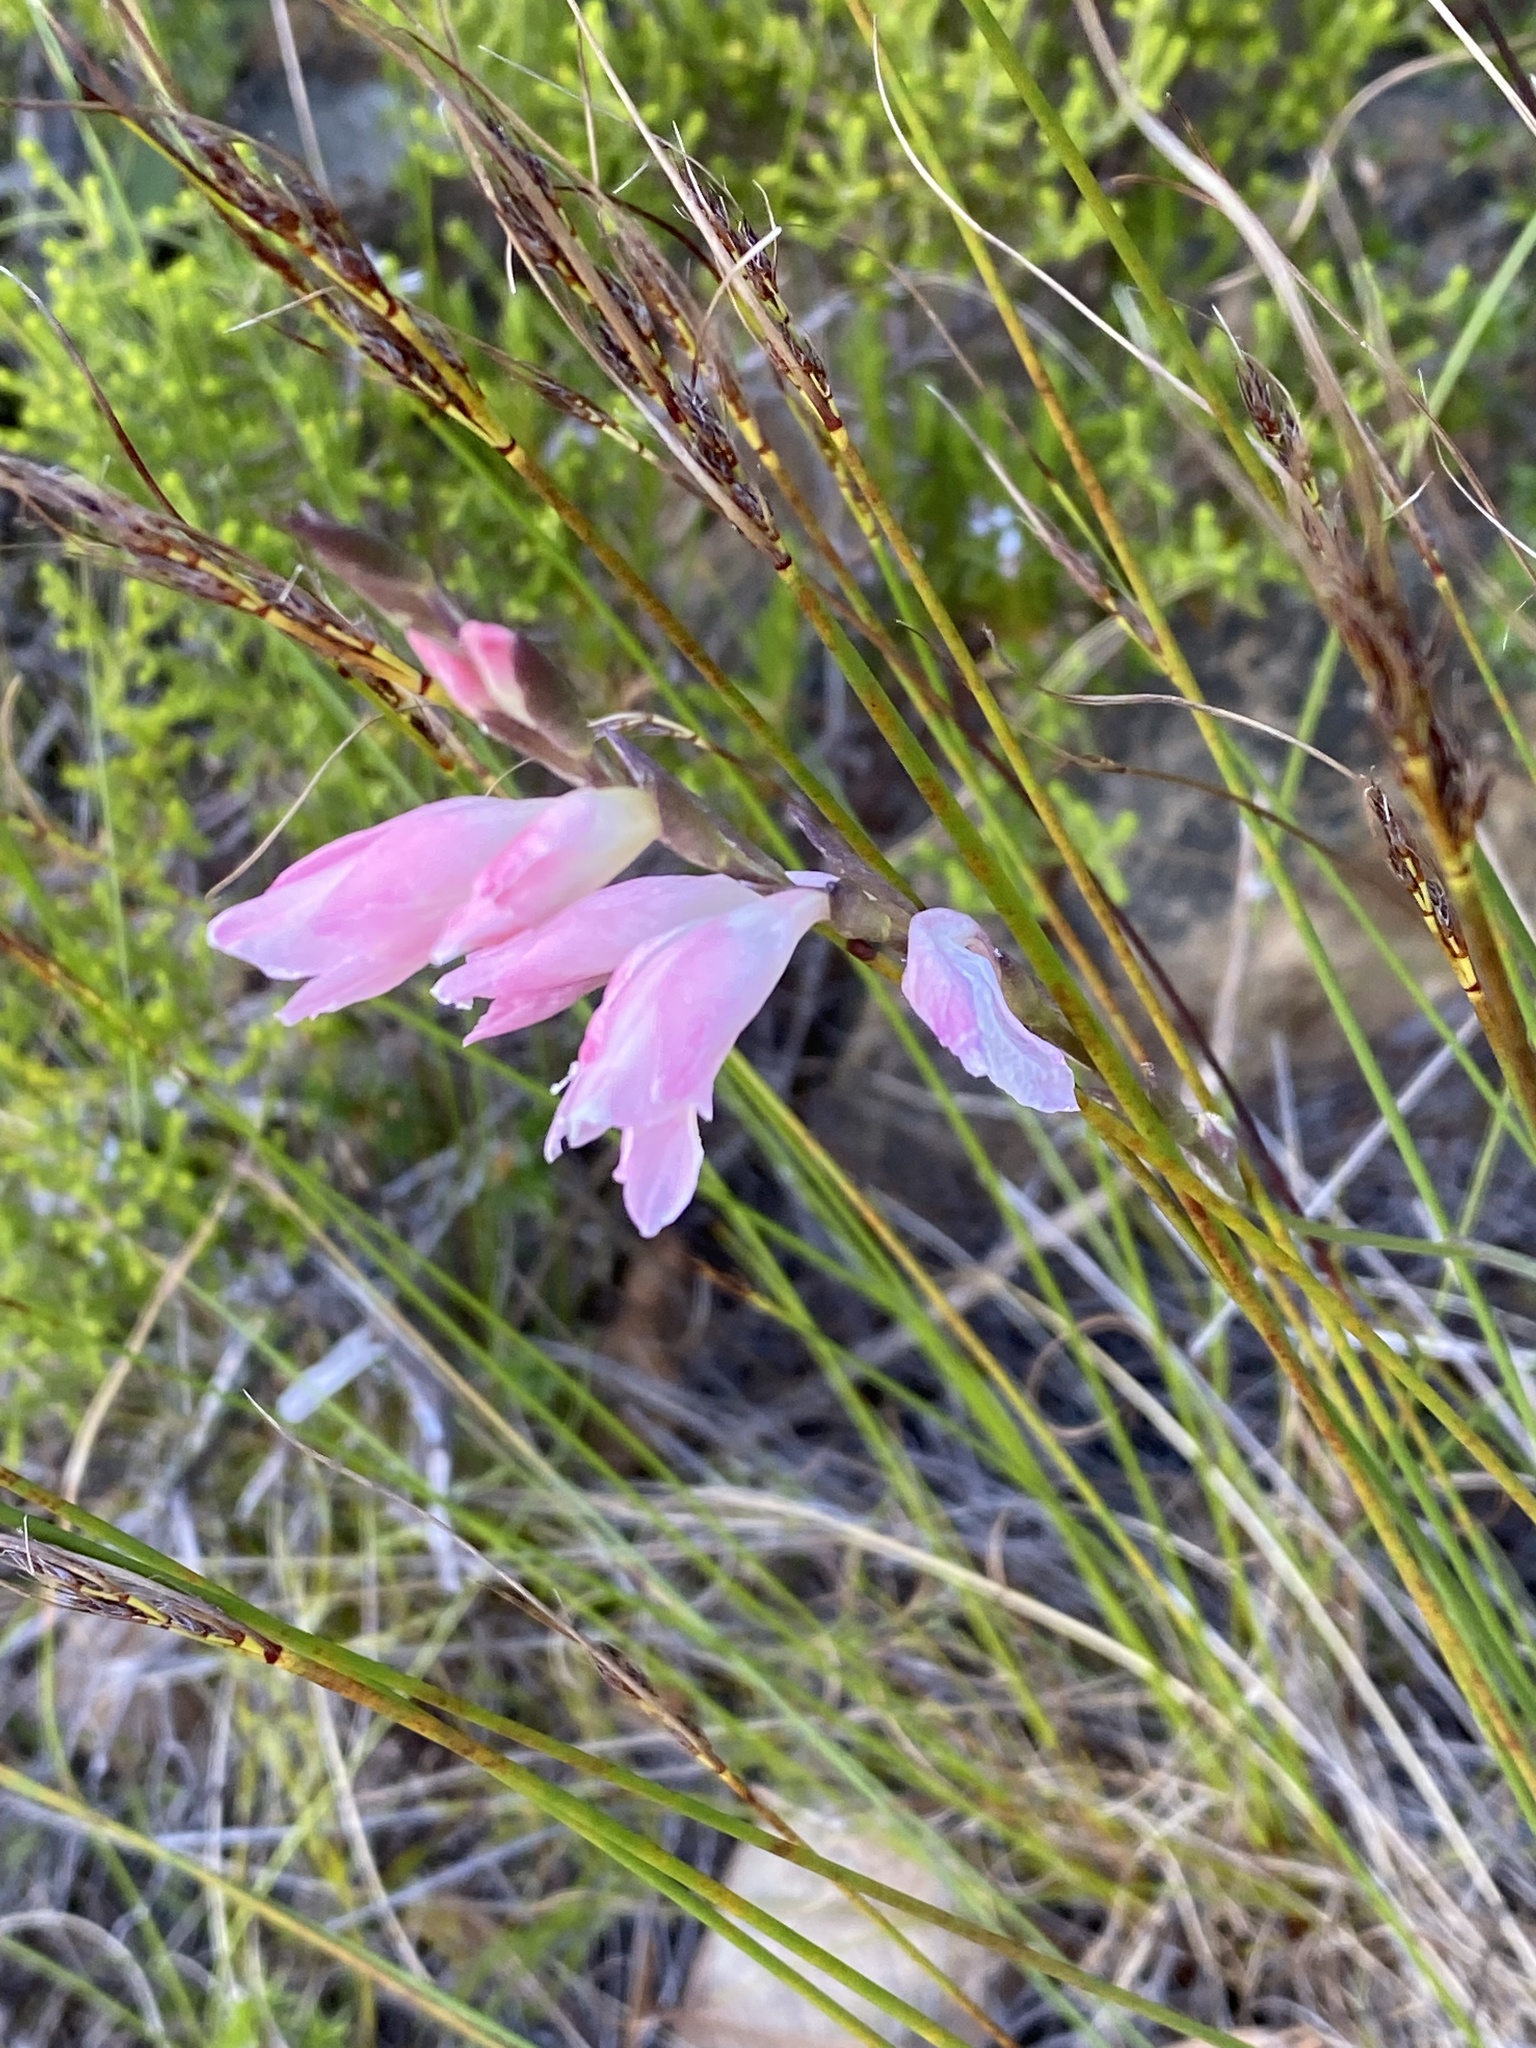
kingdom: Plantae
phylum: Tracheophyta
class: Liliopsida
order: Asparagales
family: Iridaceae
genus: Gladiolus
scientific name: Gladiolus brevifolius
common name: March pypie
